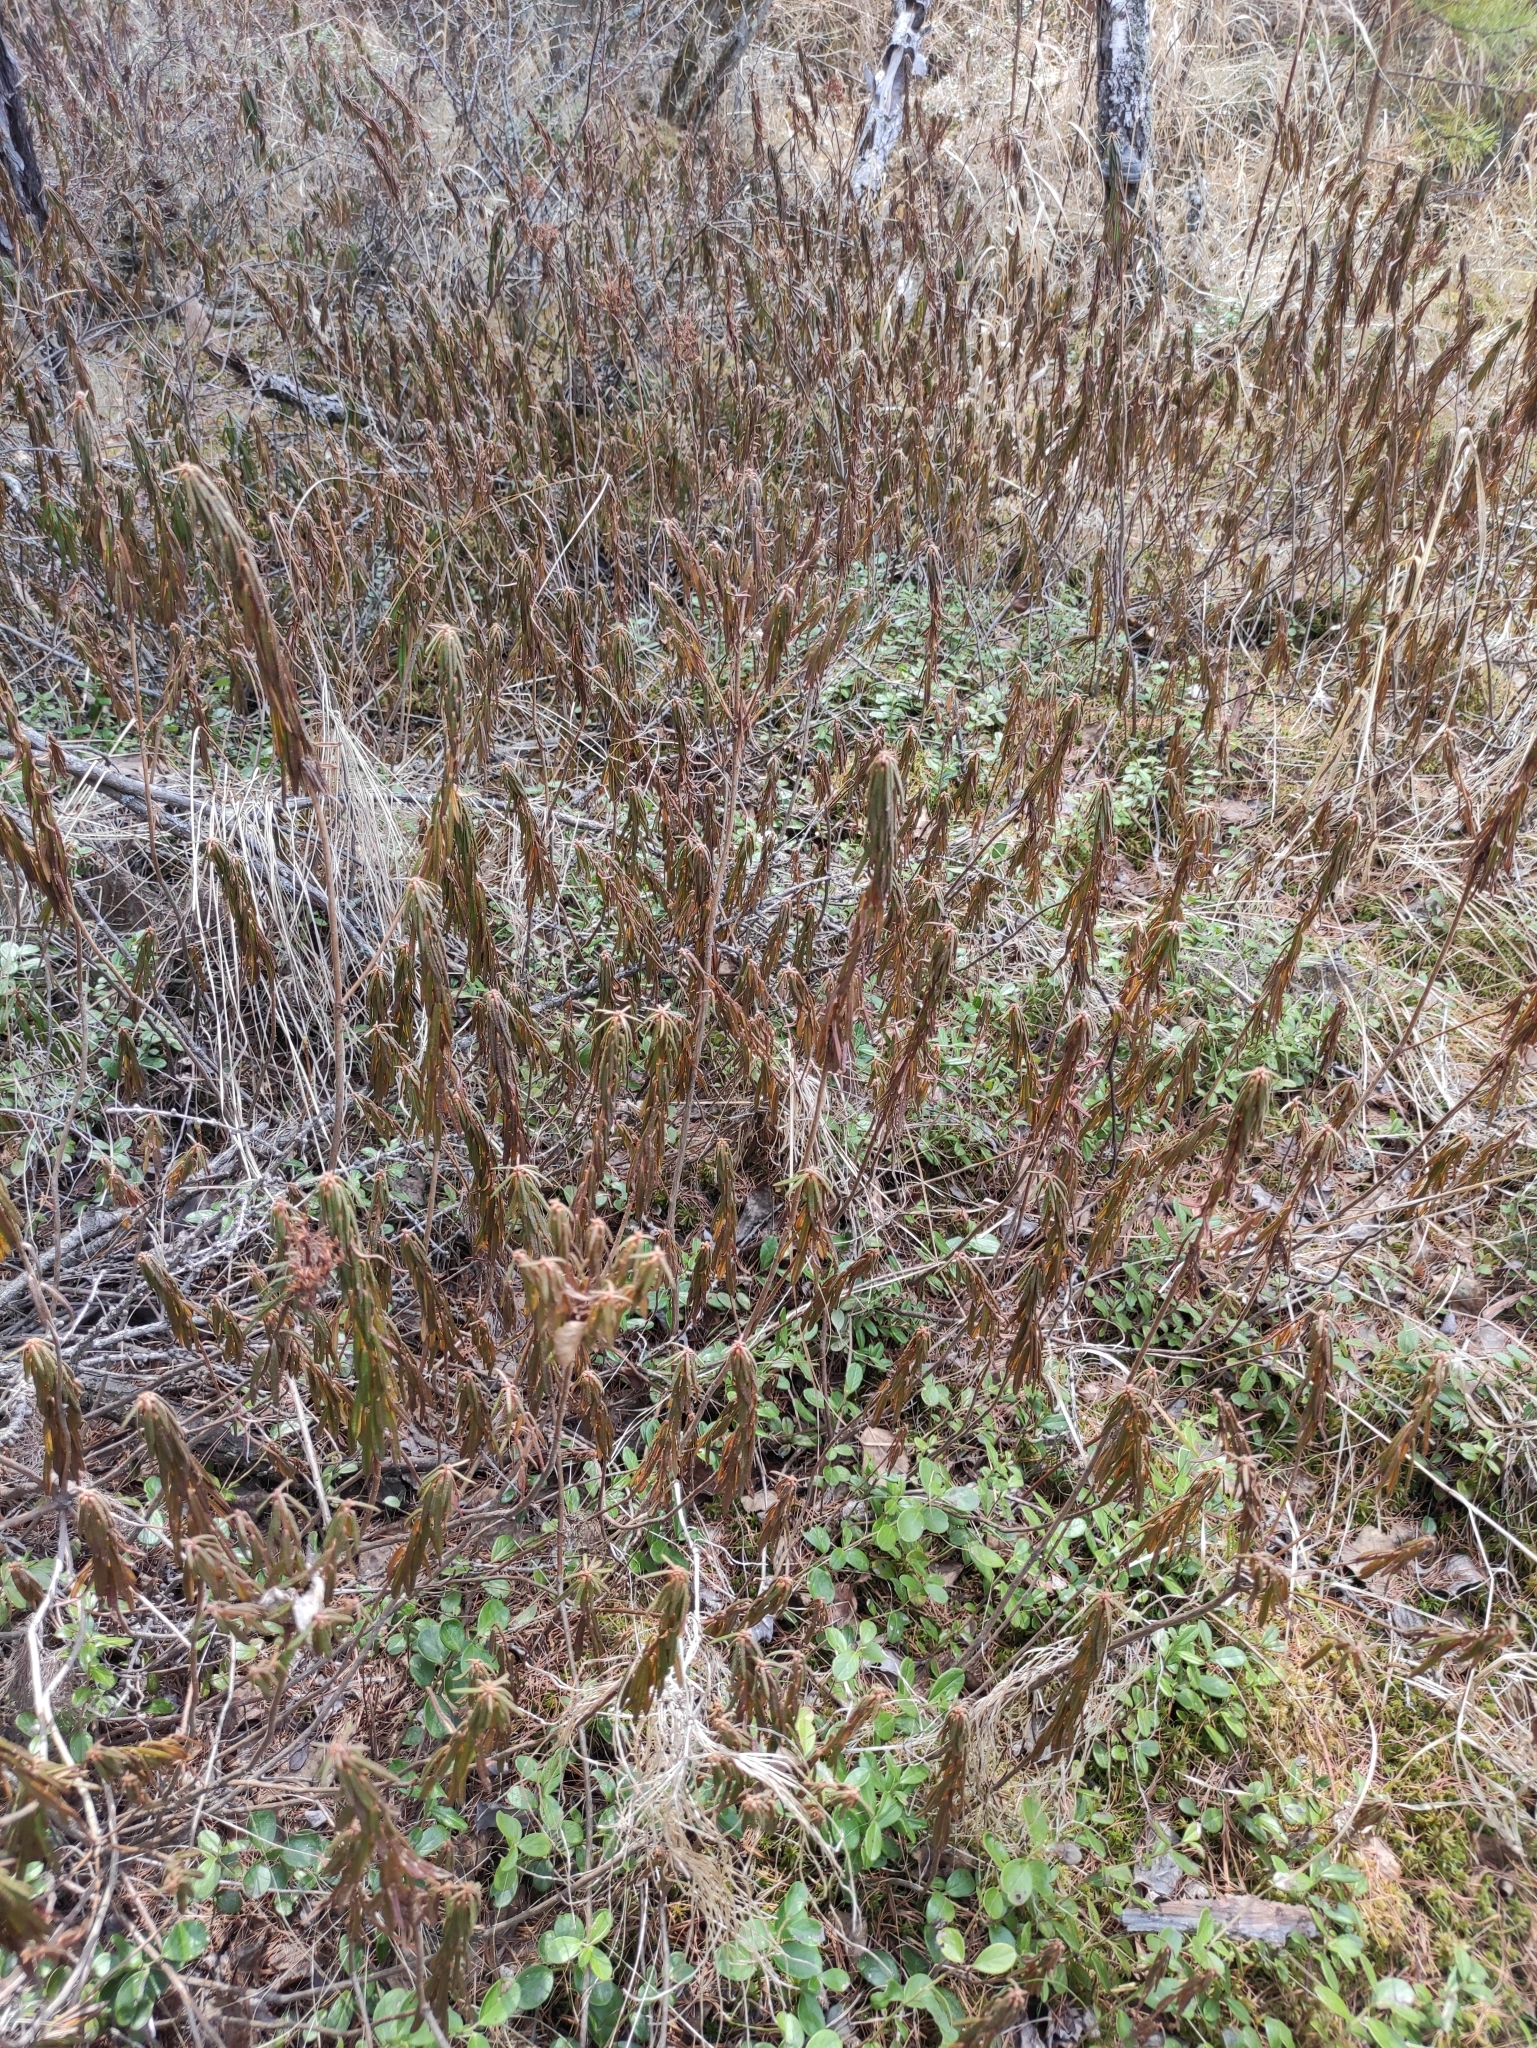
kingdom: Plantae
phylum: Tracheophyta
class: Magnoliopsida
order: Ericales
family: Ericaceae
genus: Rhododendron
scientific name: Rhododendron tomentosum
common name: Marsh labrador tea
